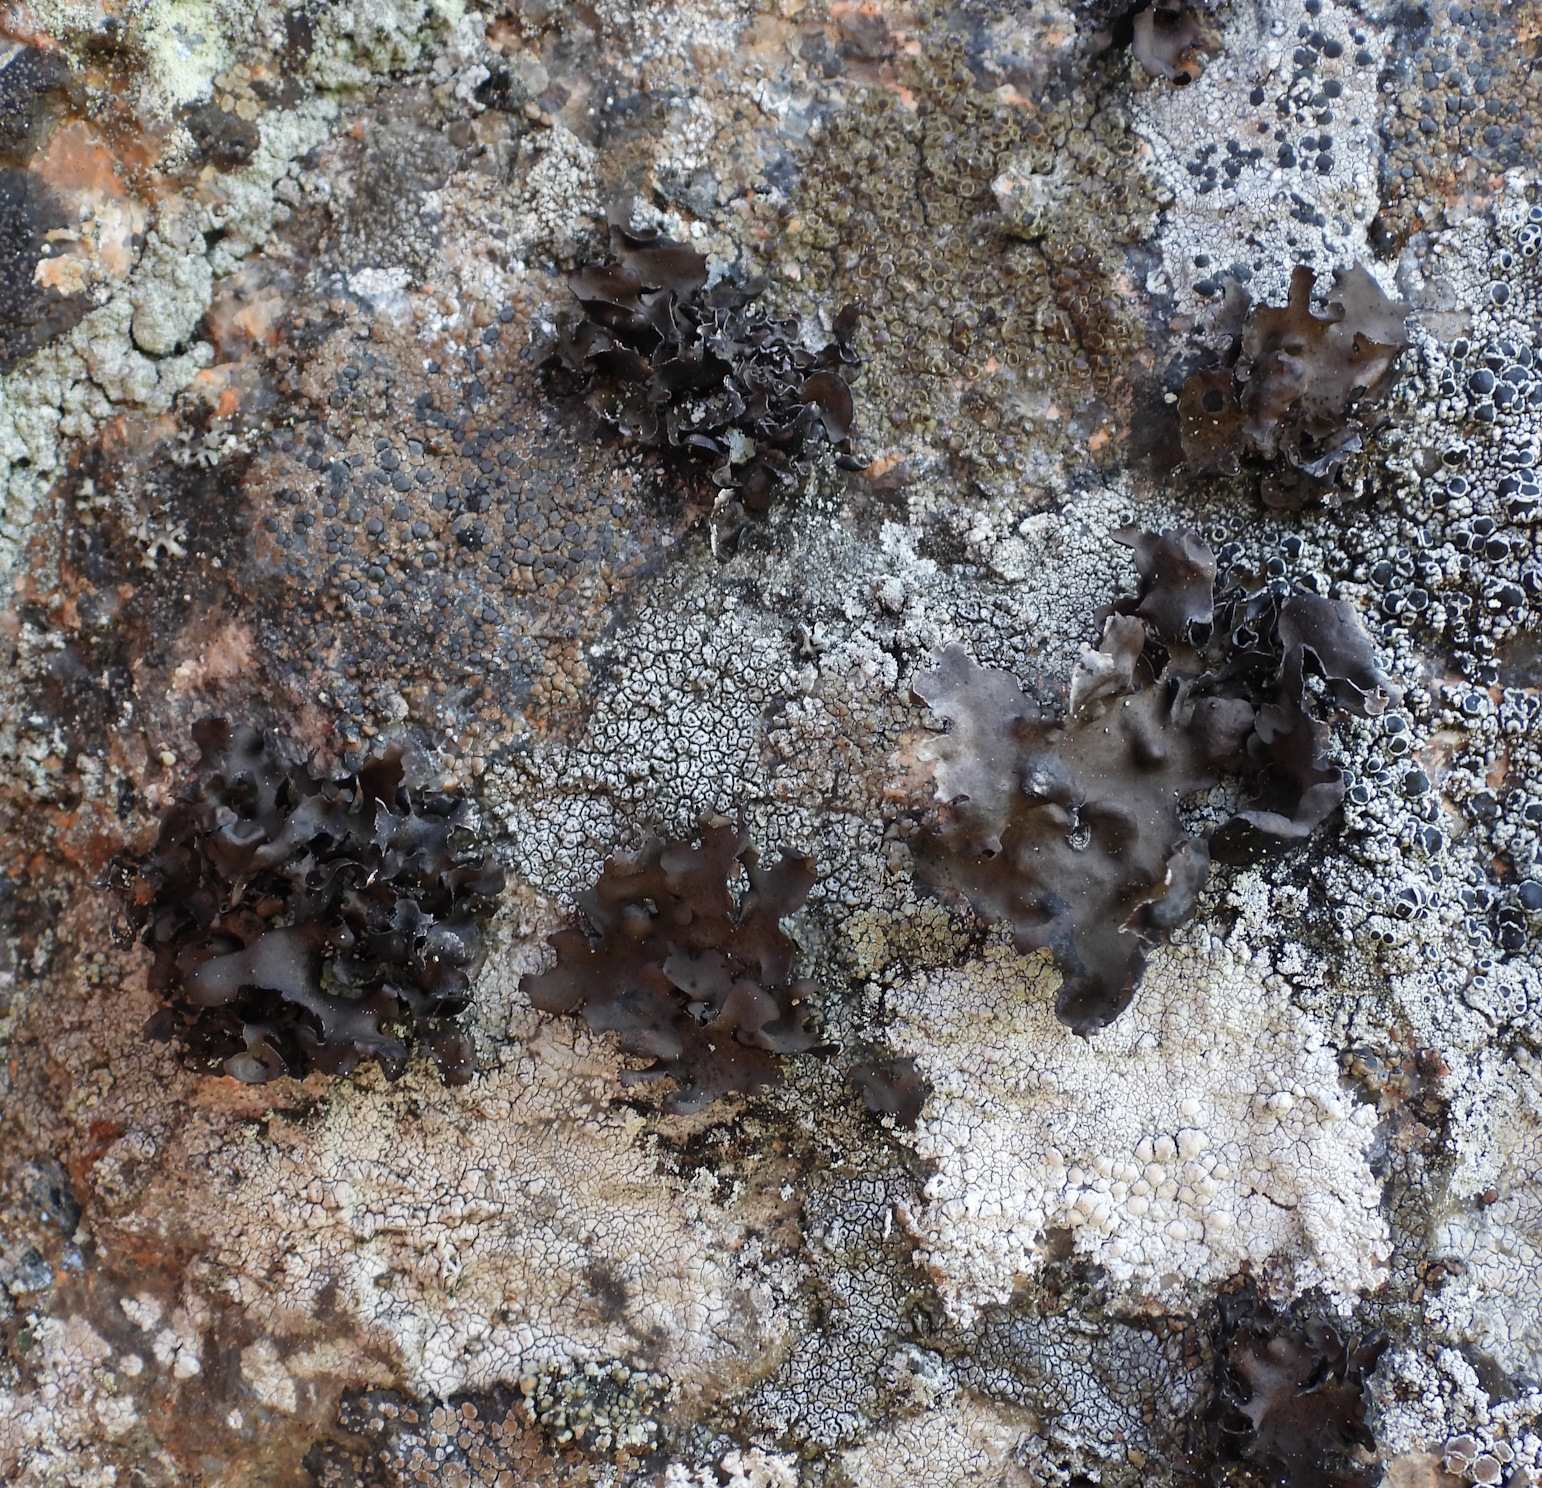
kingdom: Fungi
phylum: Ascomycota
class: Lecanoromycetes
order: Umbilicariales
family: Umbilicariaceae
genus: Umbilicaria
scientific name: Umbilicaria polyphylla
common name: Petalled rocktripe lichen
